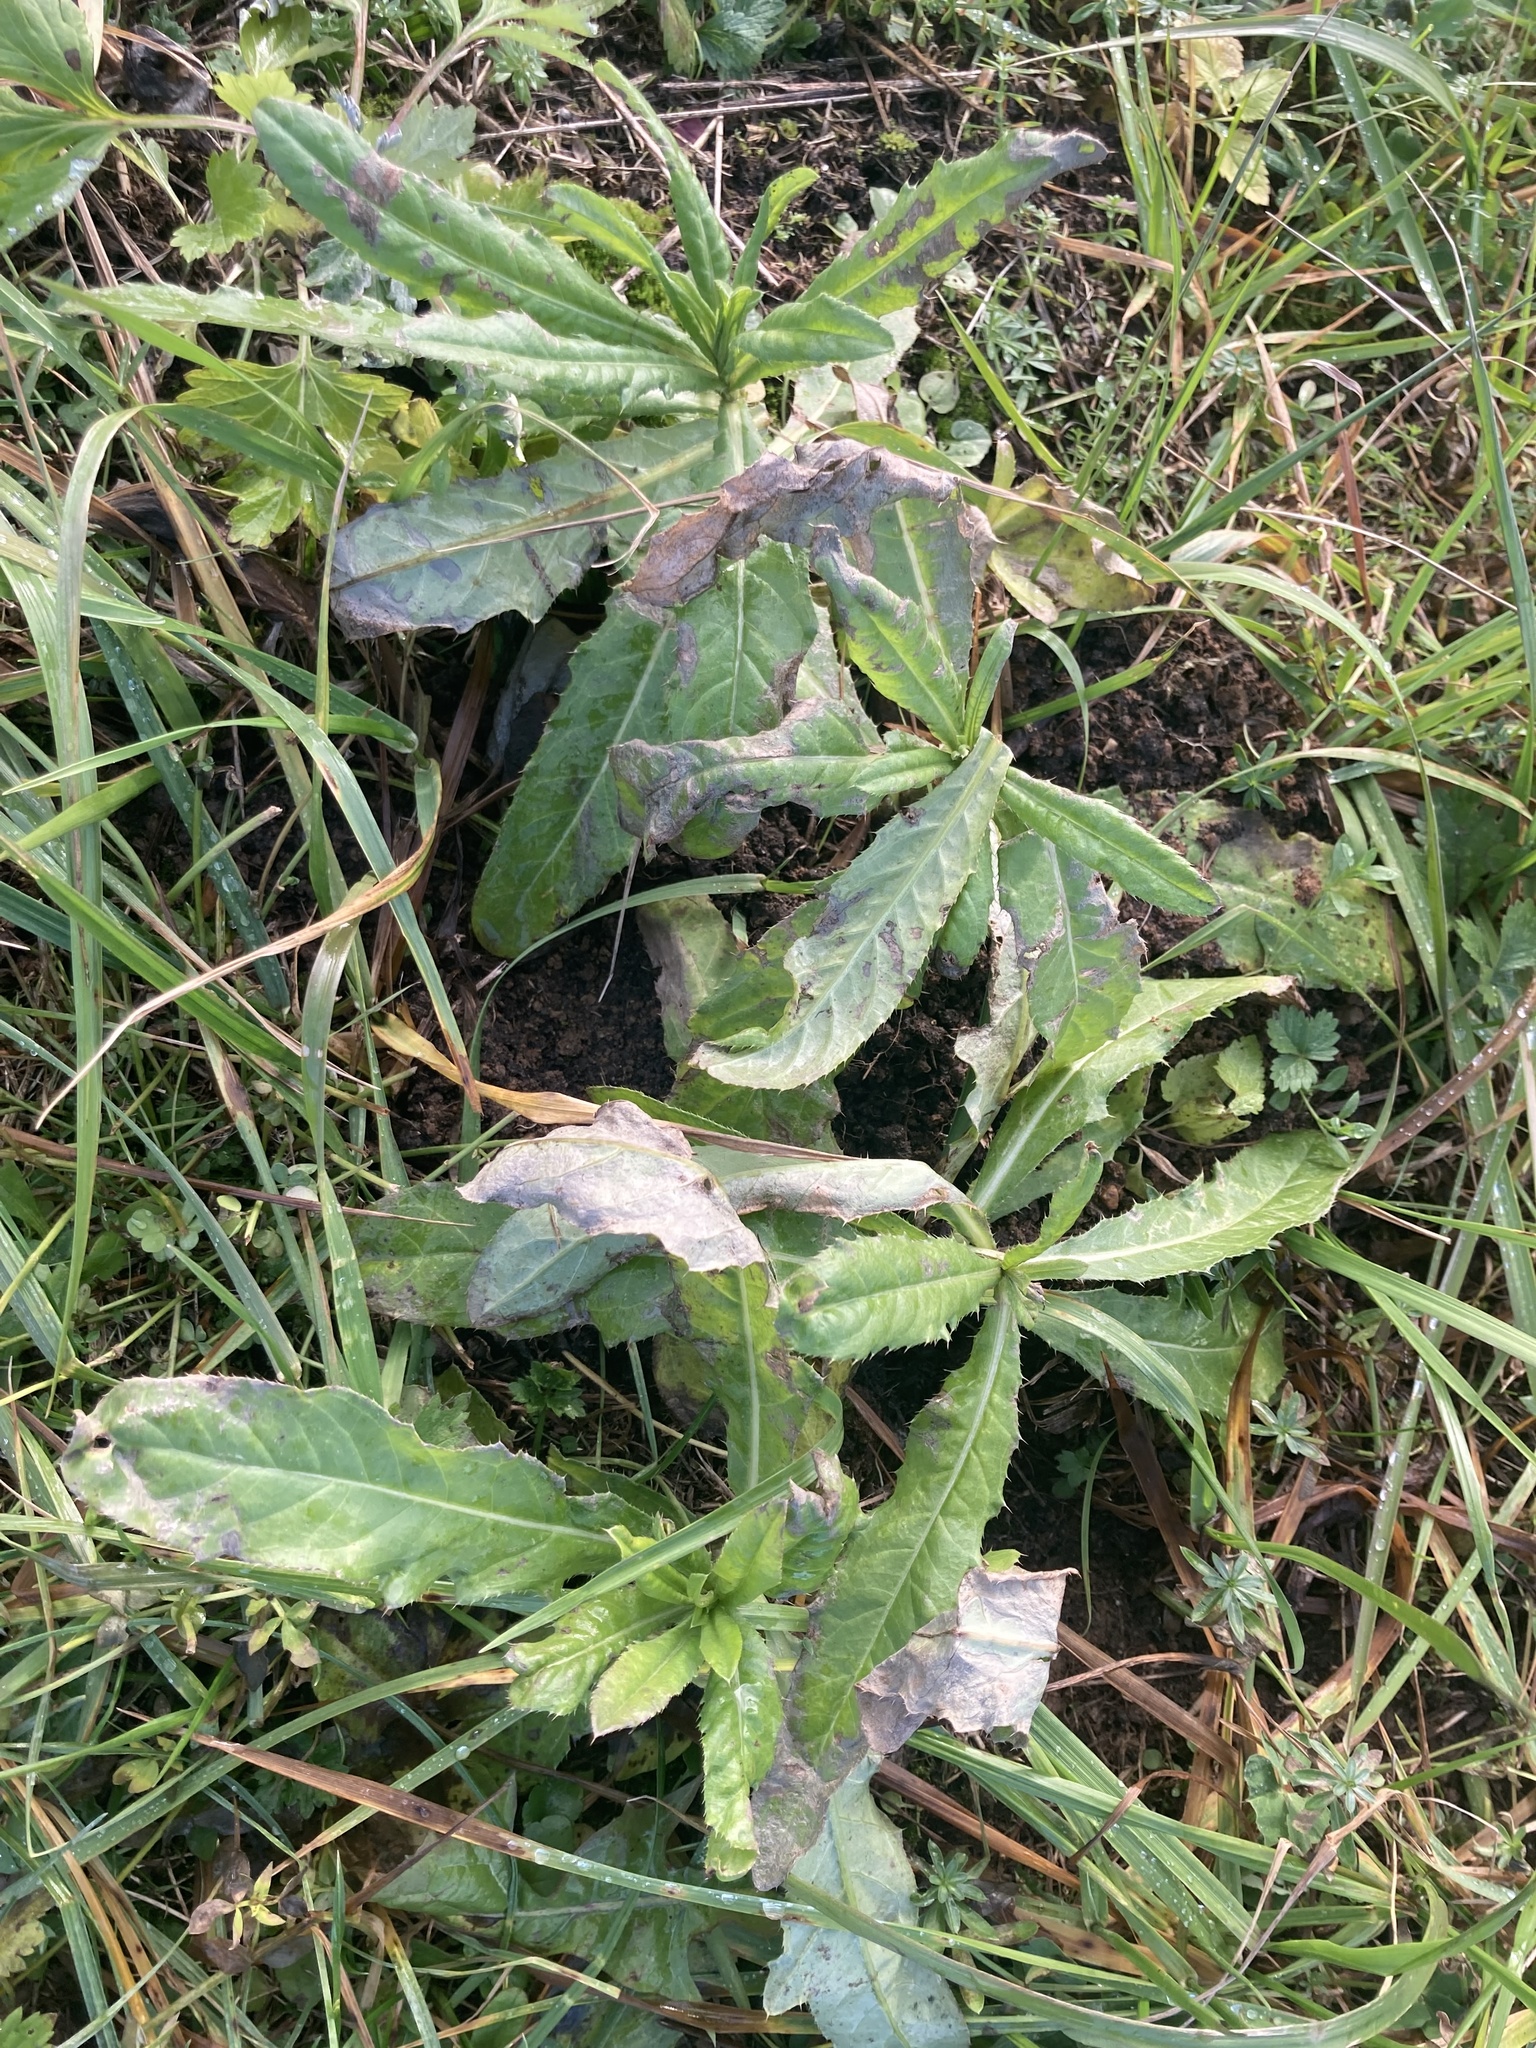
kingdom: Plantae
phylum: Tracheophyta
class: Magnoliopsida
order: Asterales
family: Asteraceae
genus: Cirsium
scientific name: Cirsium arvense
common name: Creeping thistle
